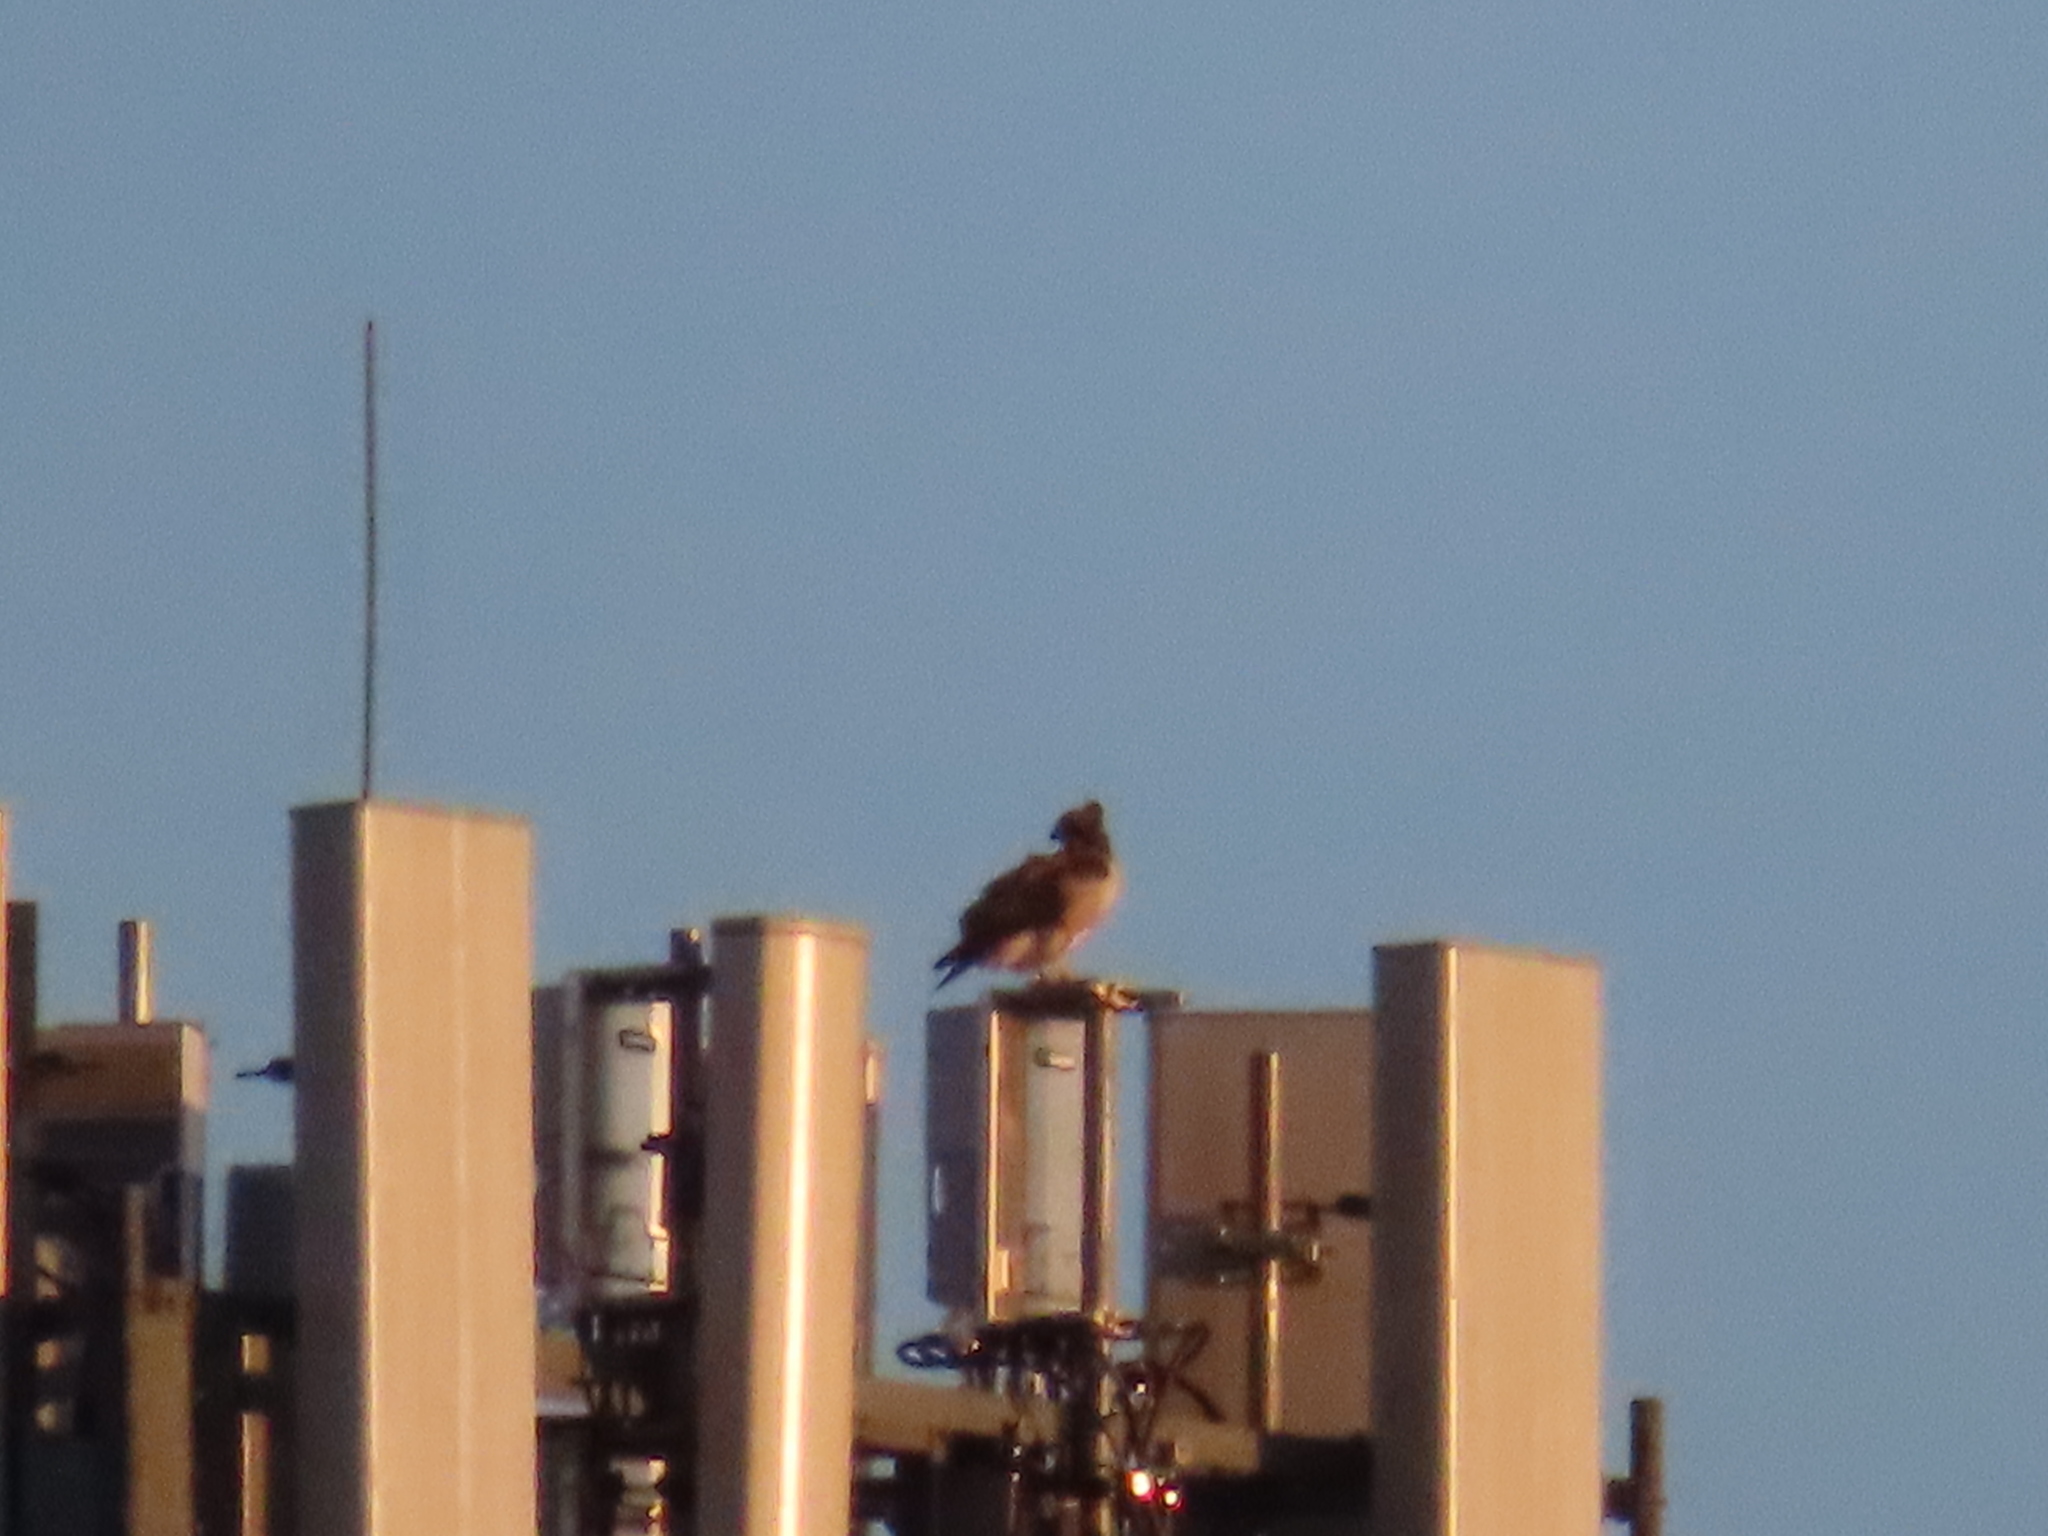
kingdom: Animalia
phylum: Chordata
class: Aves
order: Accipitriformes
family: Accipitridae
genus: Buteo
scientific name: Buteo jamaicensis
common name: Red-tailed hawk
